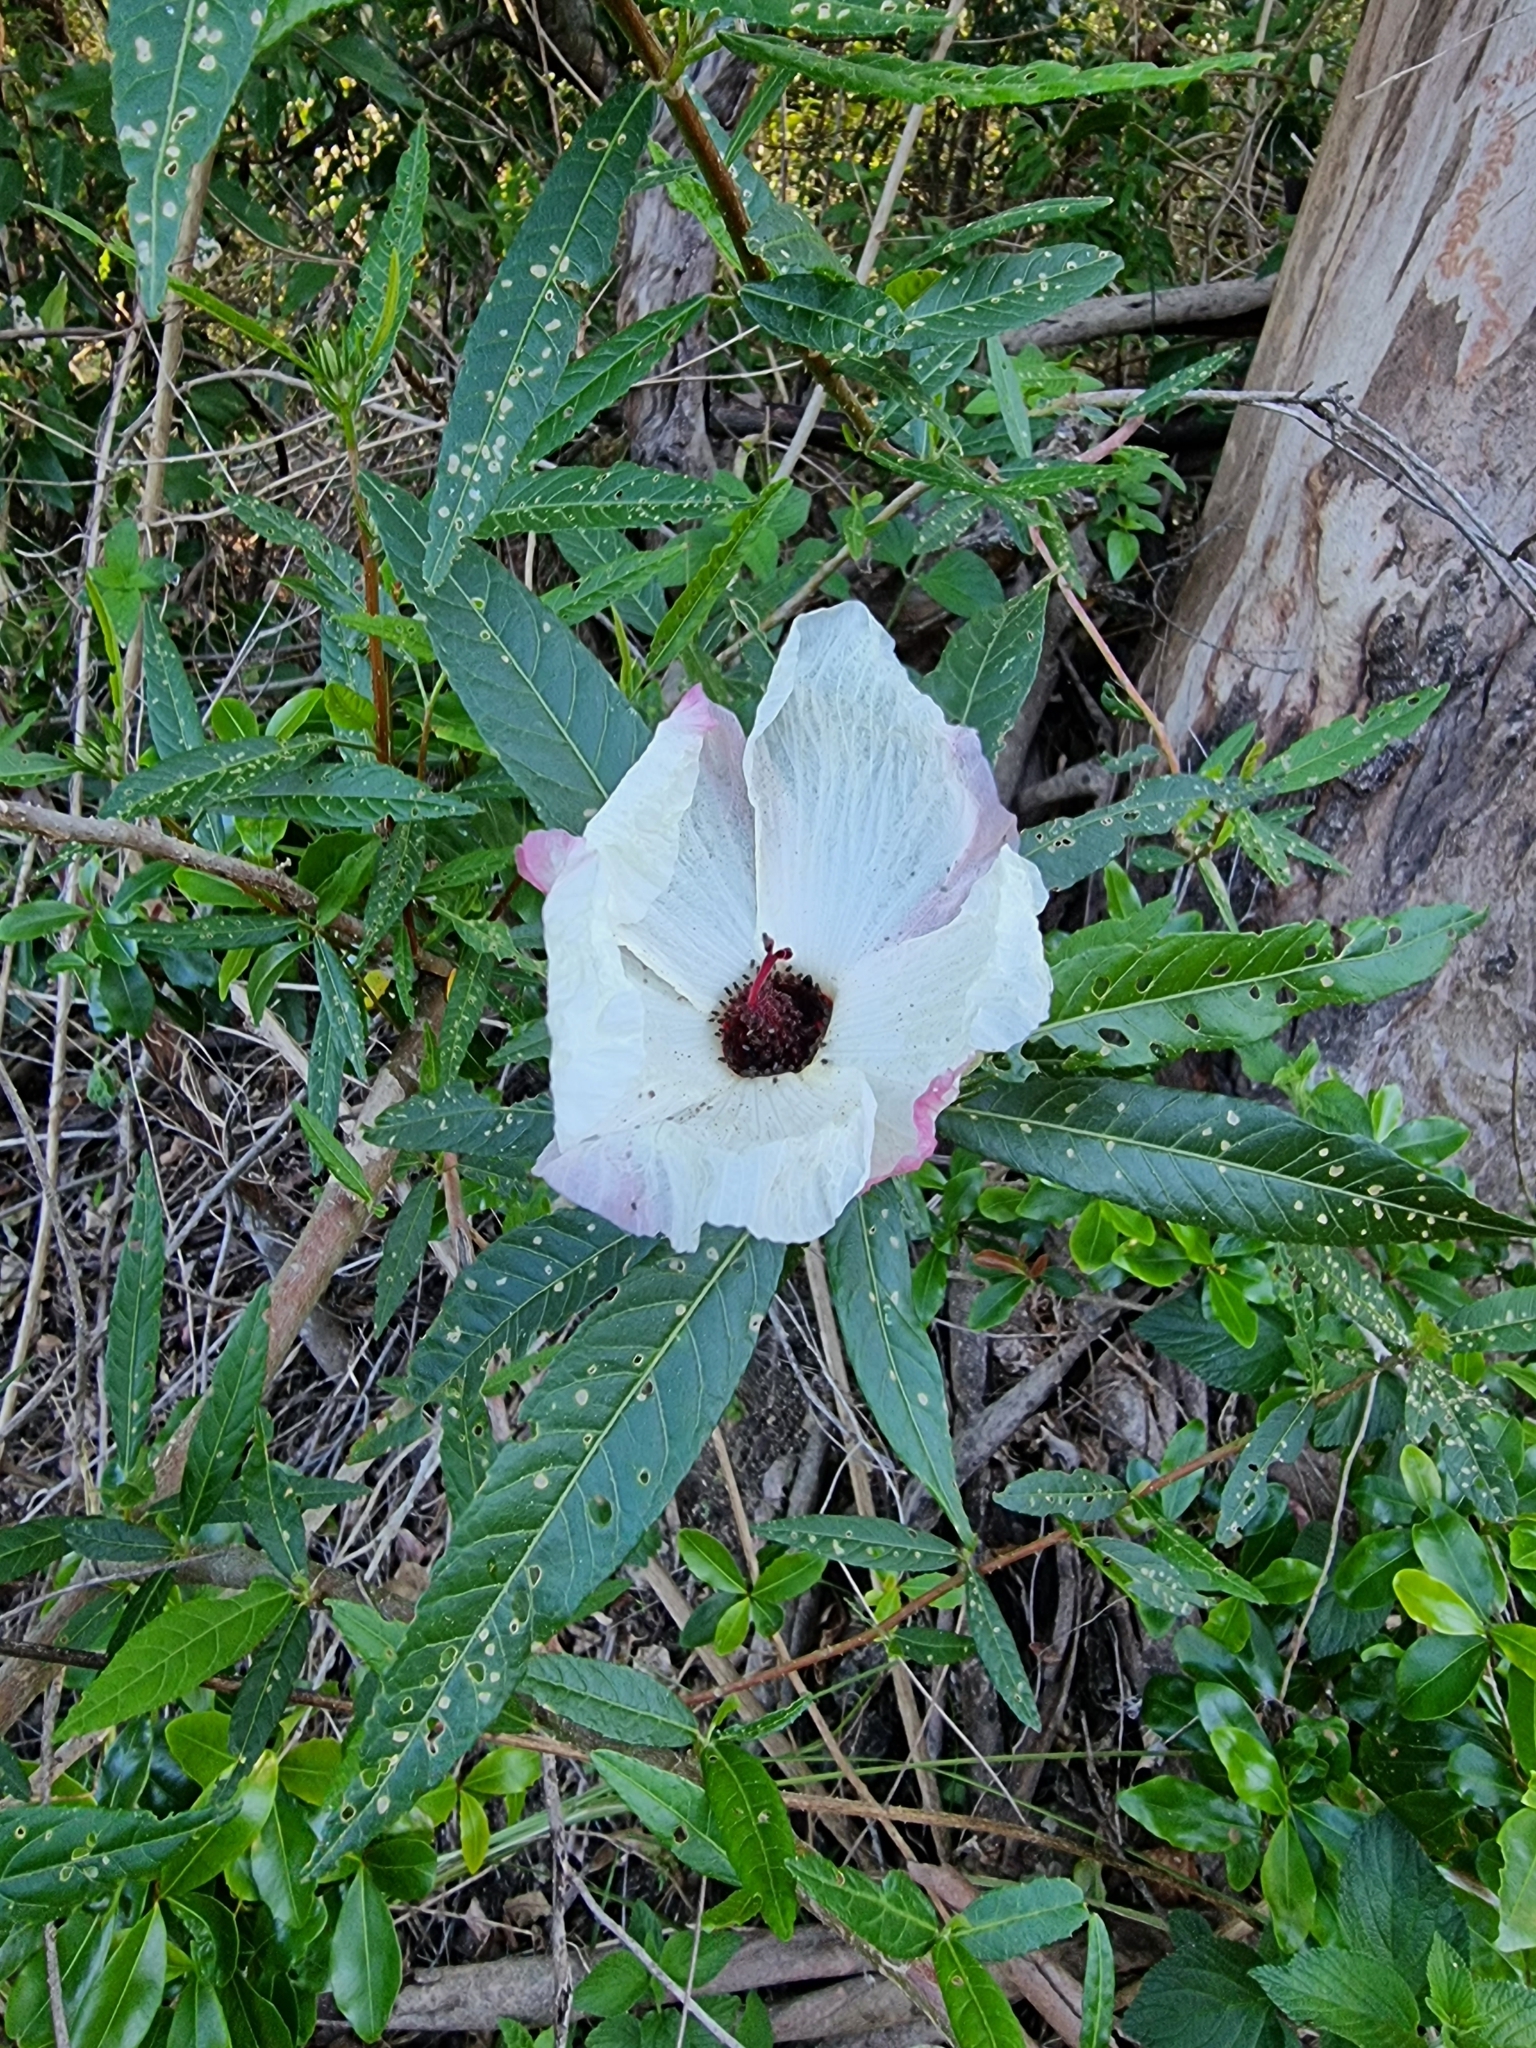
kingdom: Plantae
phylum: Tracheophyta
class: Magnoliopsida
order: Malvales
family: Malvaceae
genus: Hibiscus
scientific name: Hibiscus heterophyllus
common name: Queensland-sorrel
